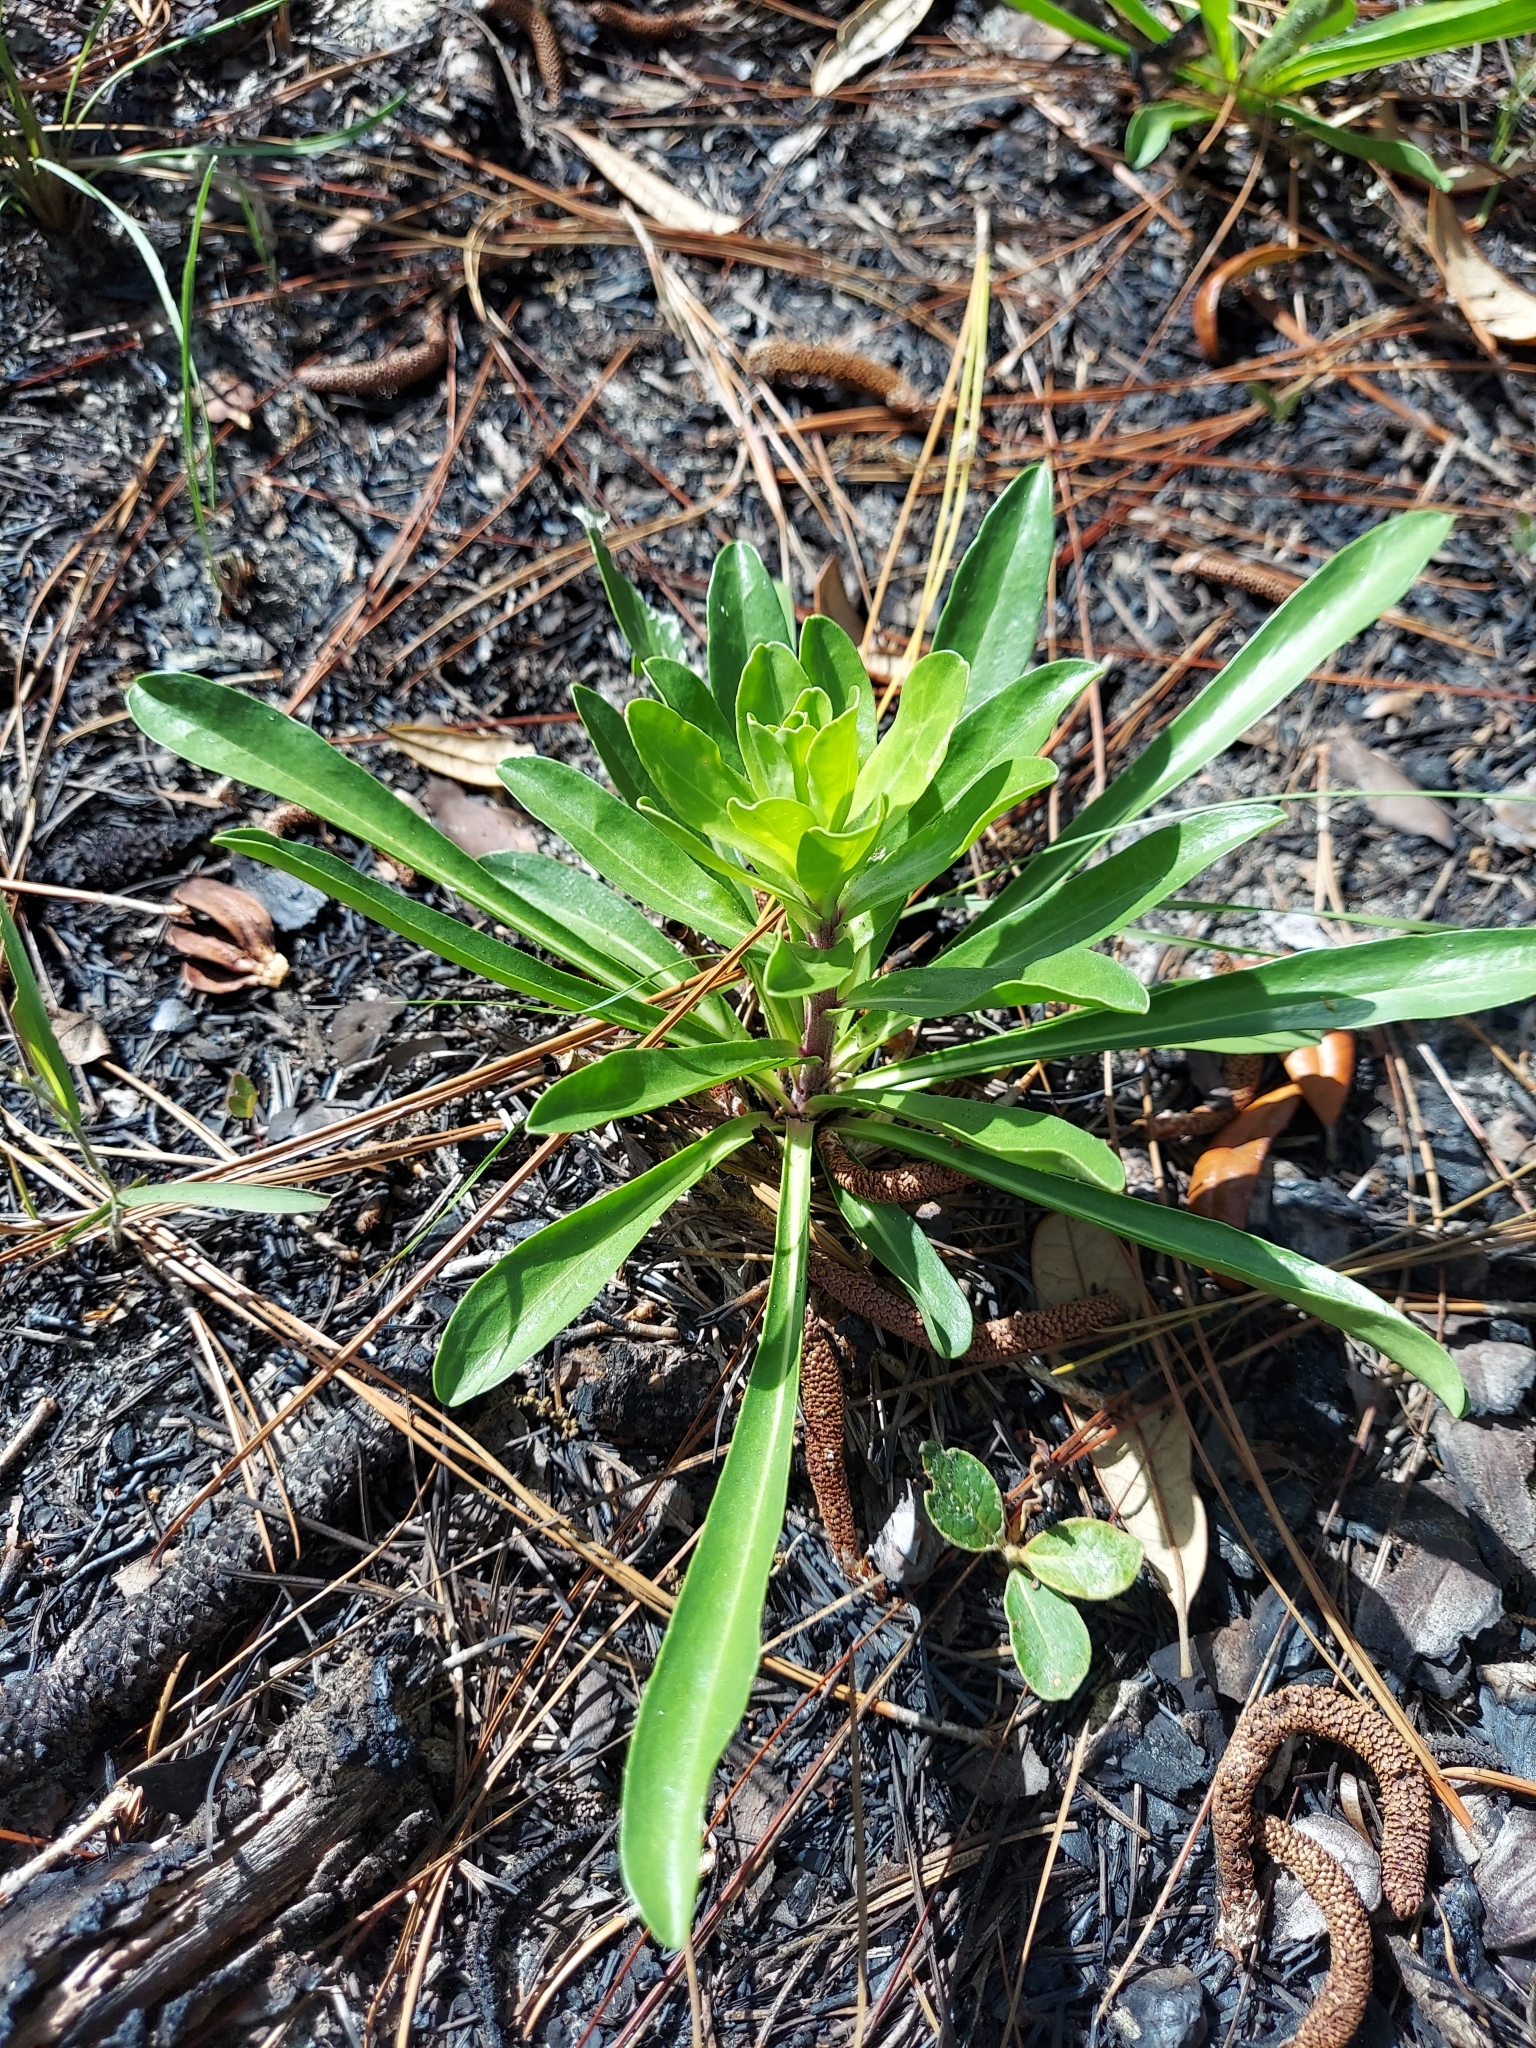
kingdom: Plantae
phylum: Tracheophyta
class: Magnoliopsida
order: Asterales
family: Asteraceae
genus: Carphephorus
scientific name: Carphephorus corymbosus
